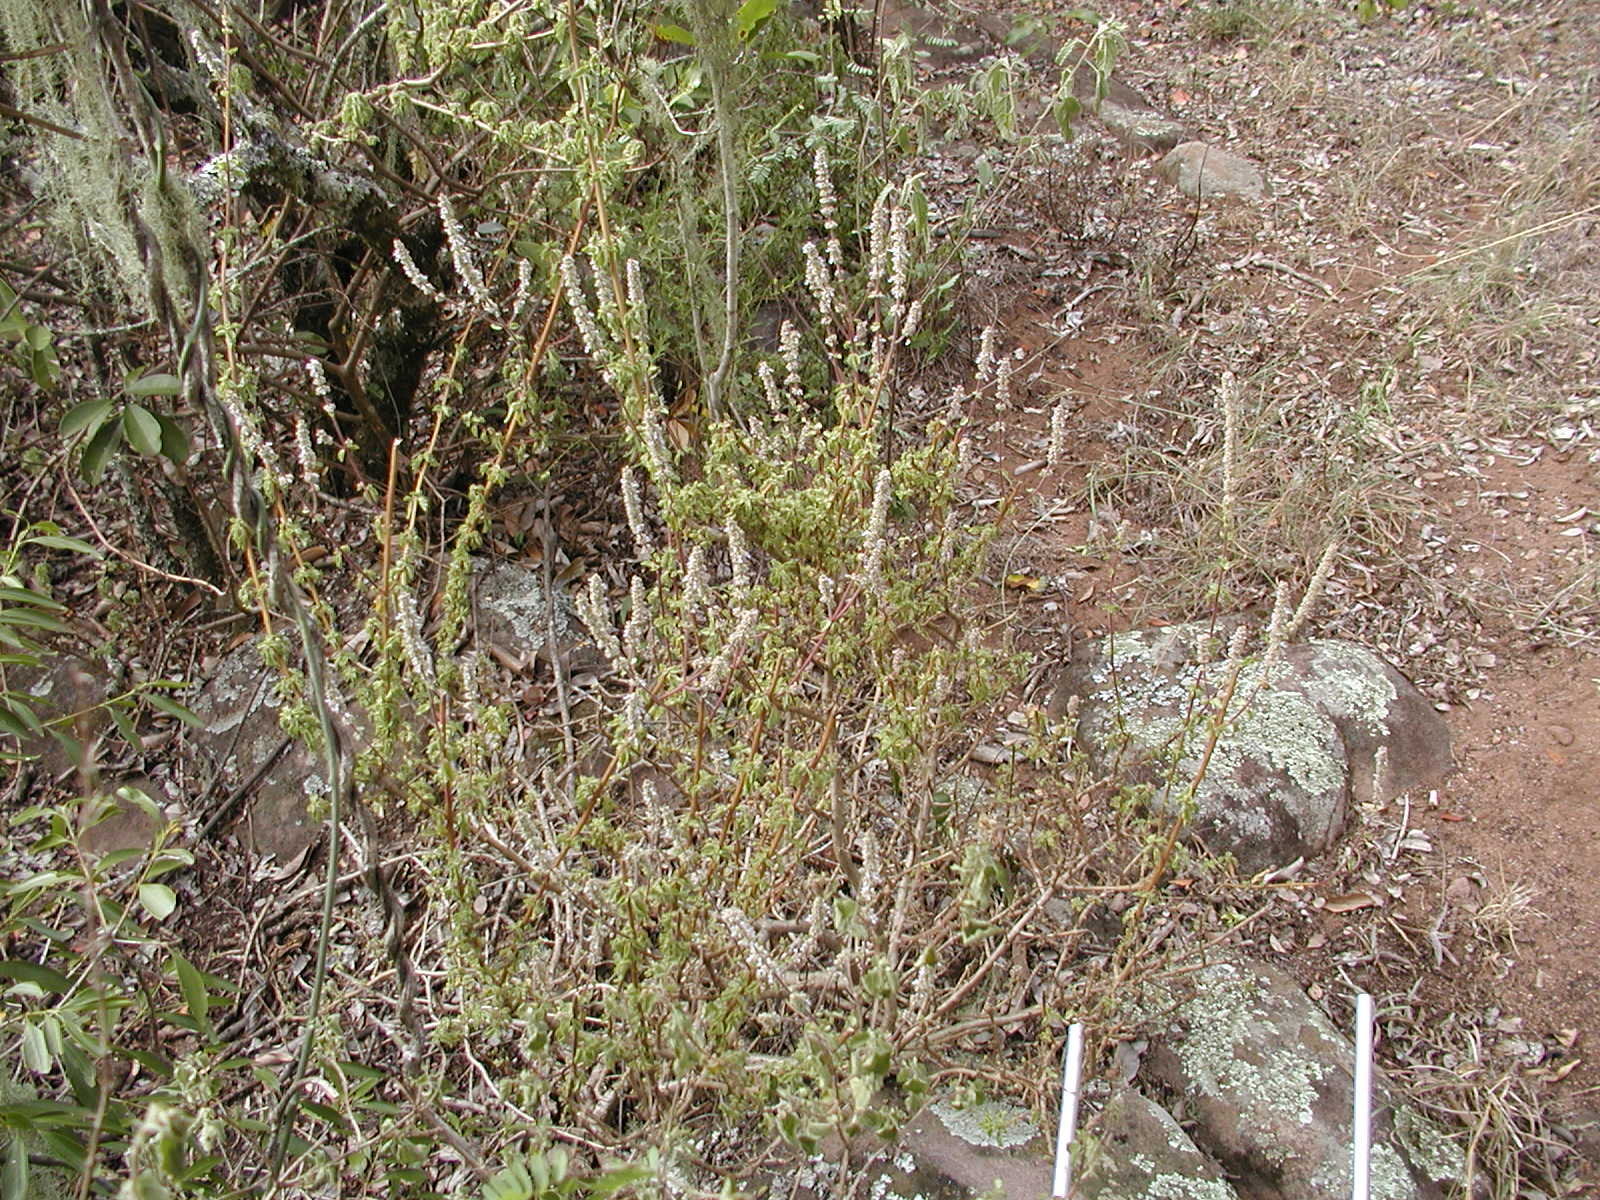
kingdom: Plantae
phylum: Tracheophyta
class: Magnoliopsida
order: Lamiales
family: Lamiaceae
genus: Coleus
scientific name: Coleus cylindraceus
